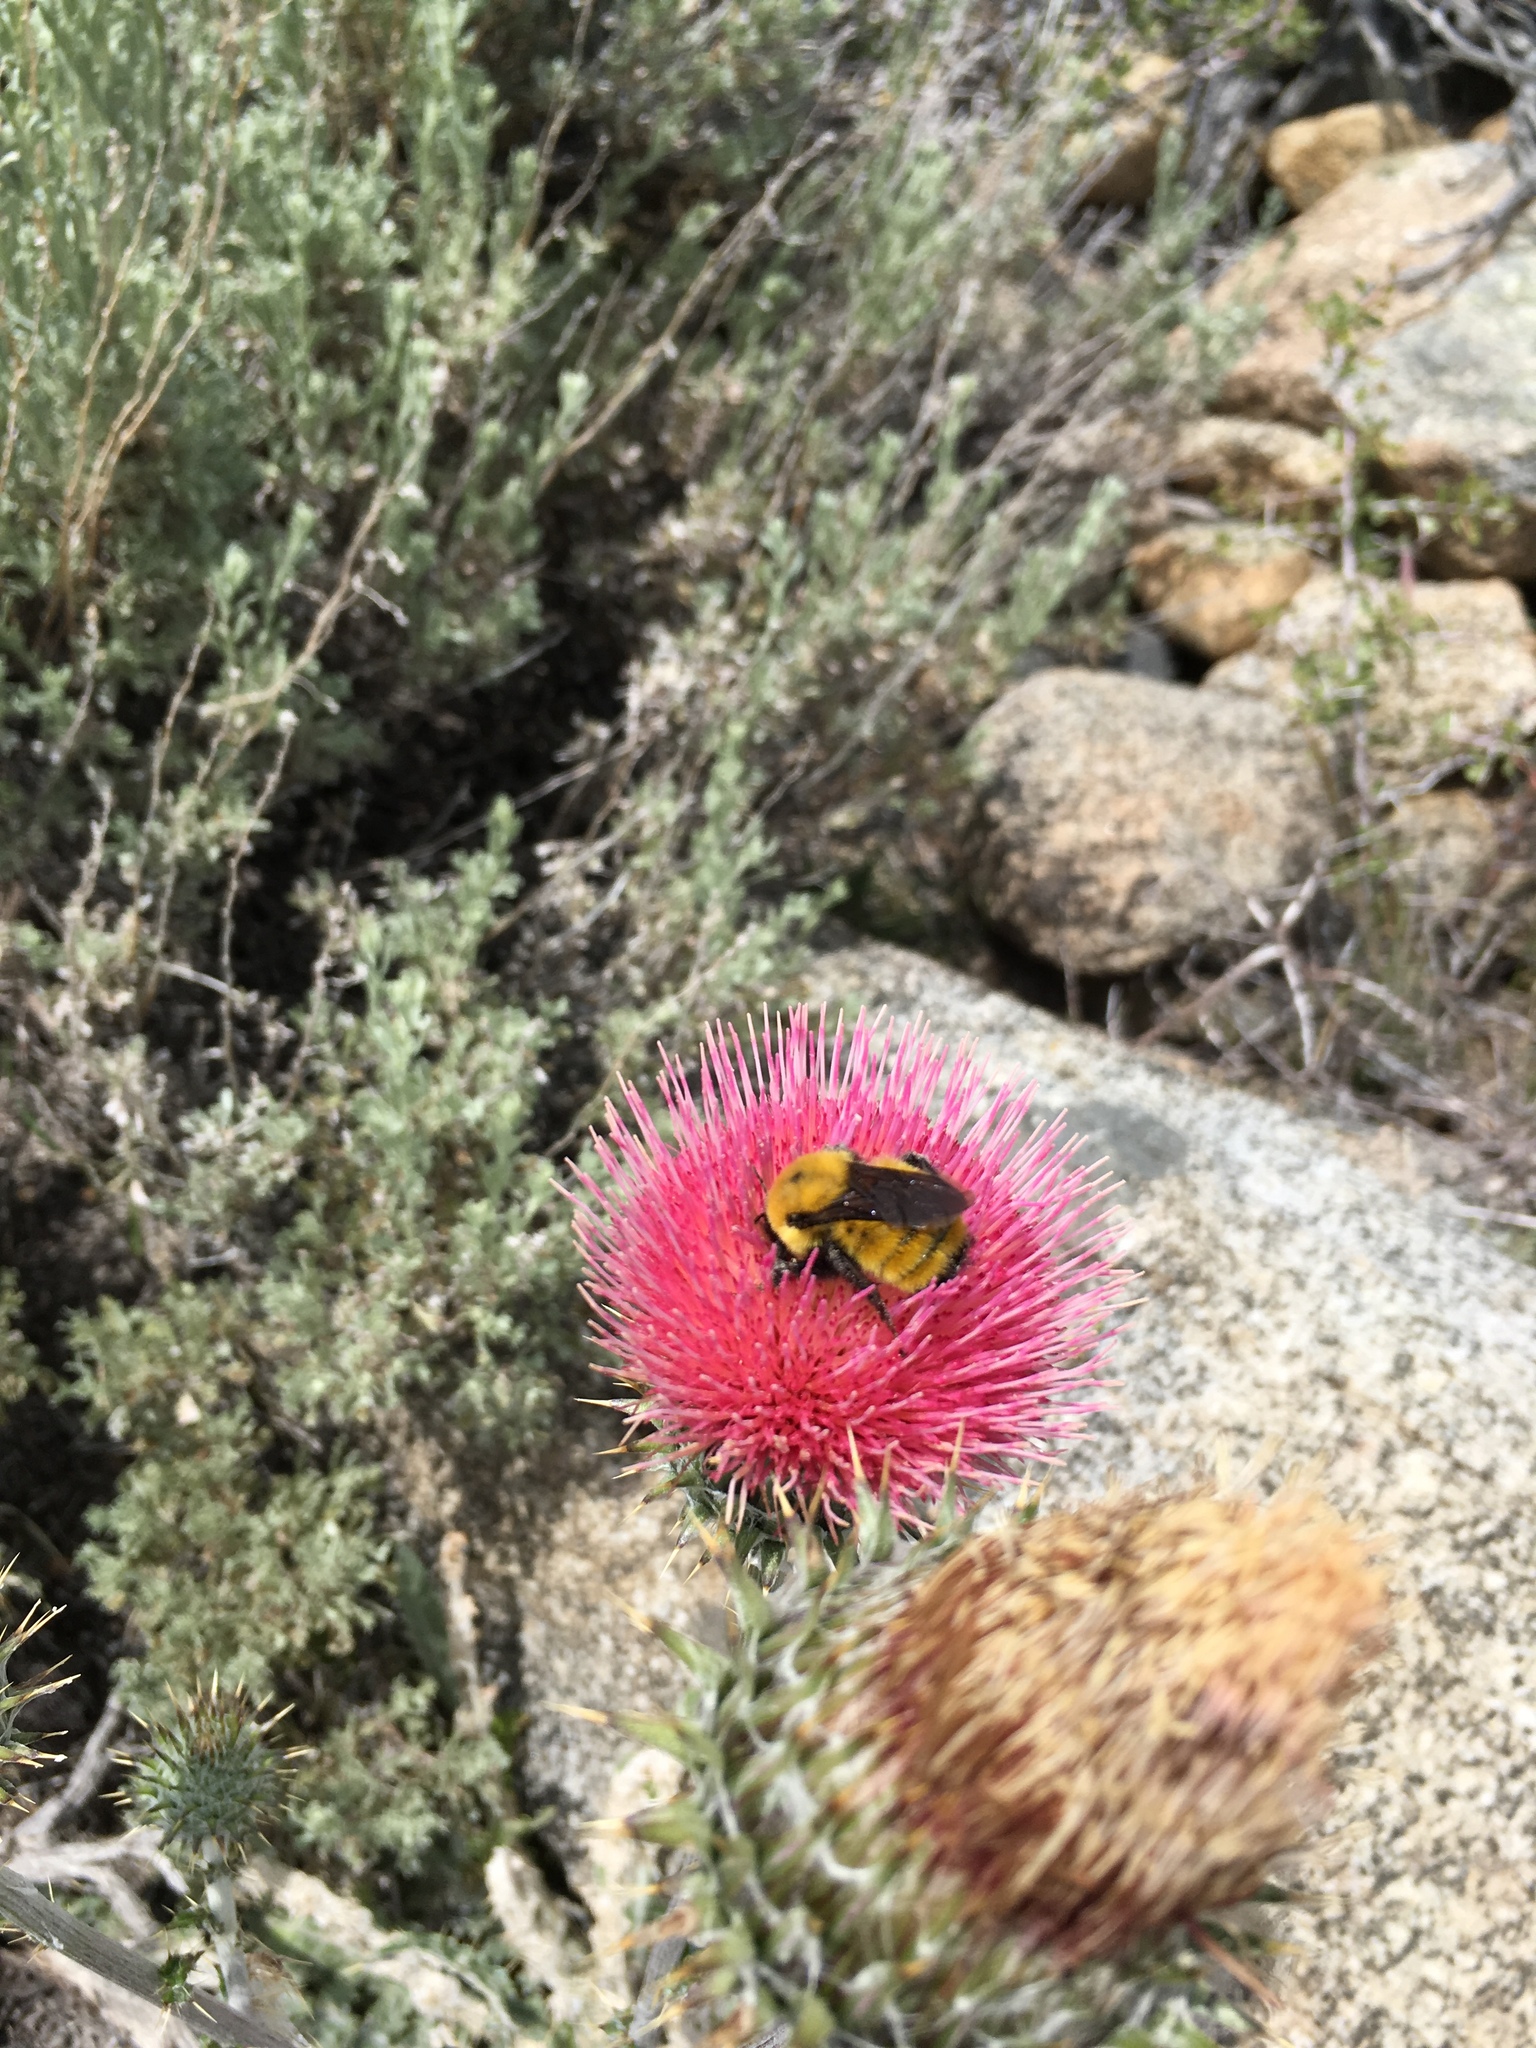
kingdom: Animalia
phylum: Arthropoda
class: Insecta
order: Hymenoptera
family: Apidae
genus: Bombus
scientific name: Bombus fervidus
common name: Yellow bumble bee
